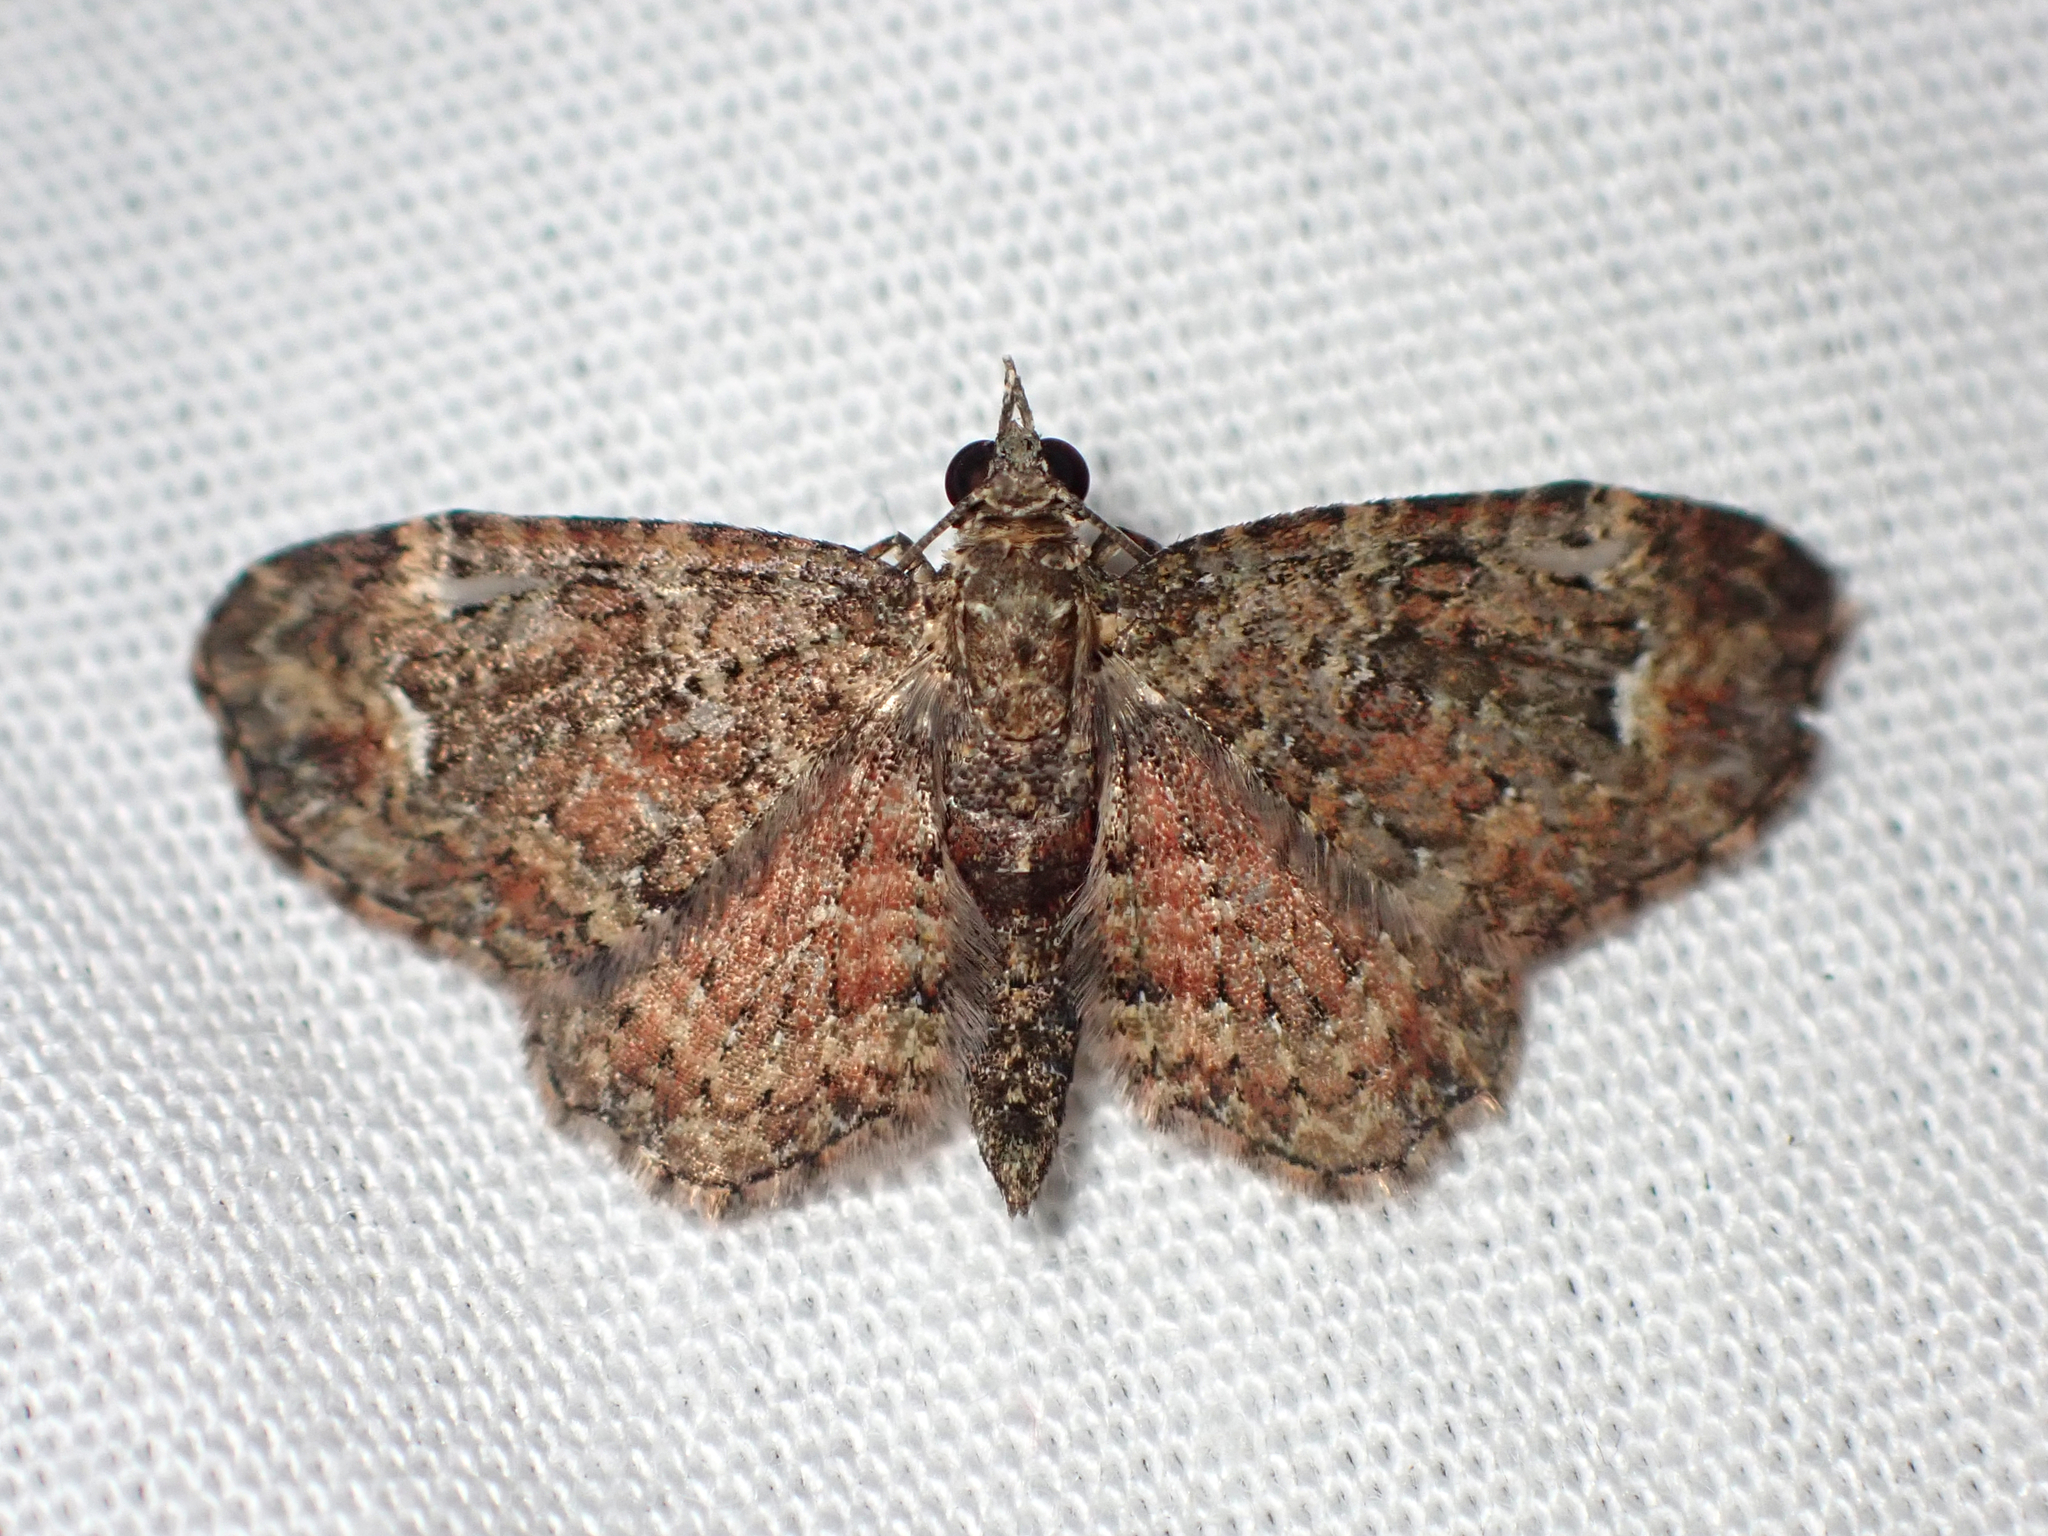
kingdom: Animalia
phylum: Arthropoda
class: Insecta
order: Lepidoptera
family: Geometridae
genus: Pasiphilodes
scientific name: Pasiphilodes testulata
